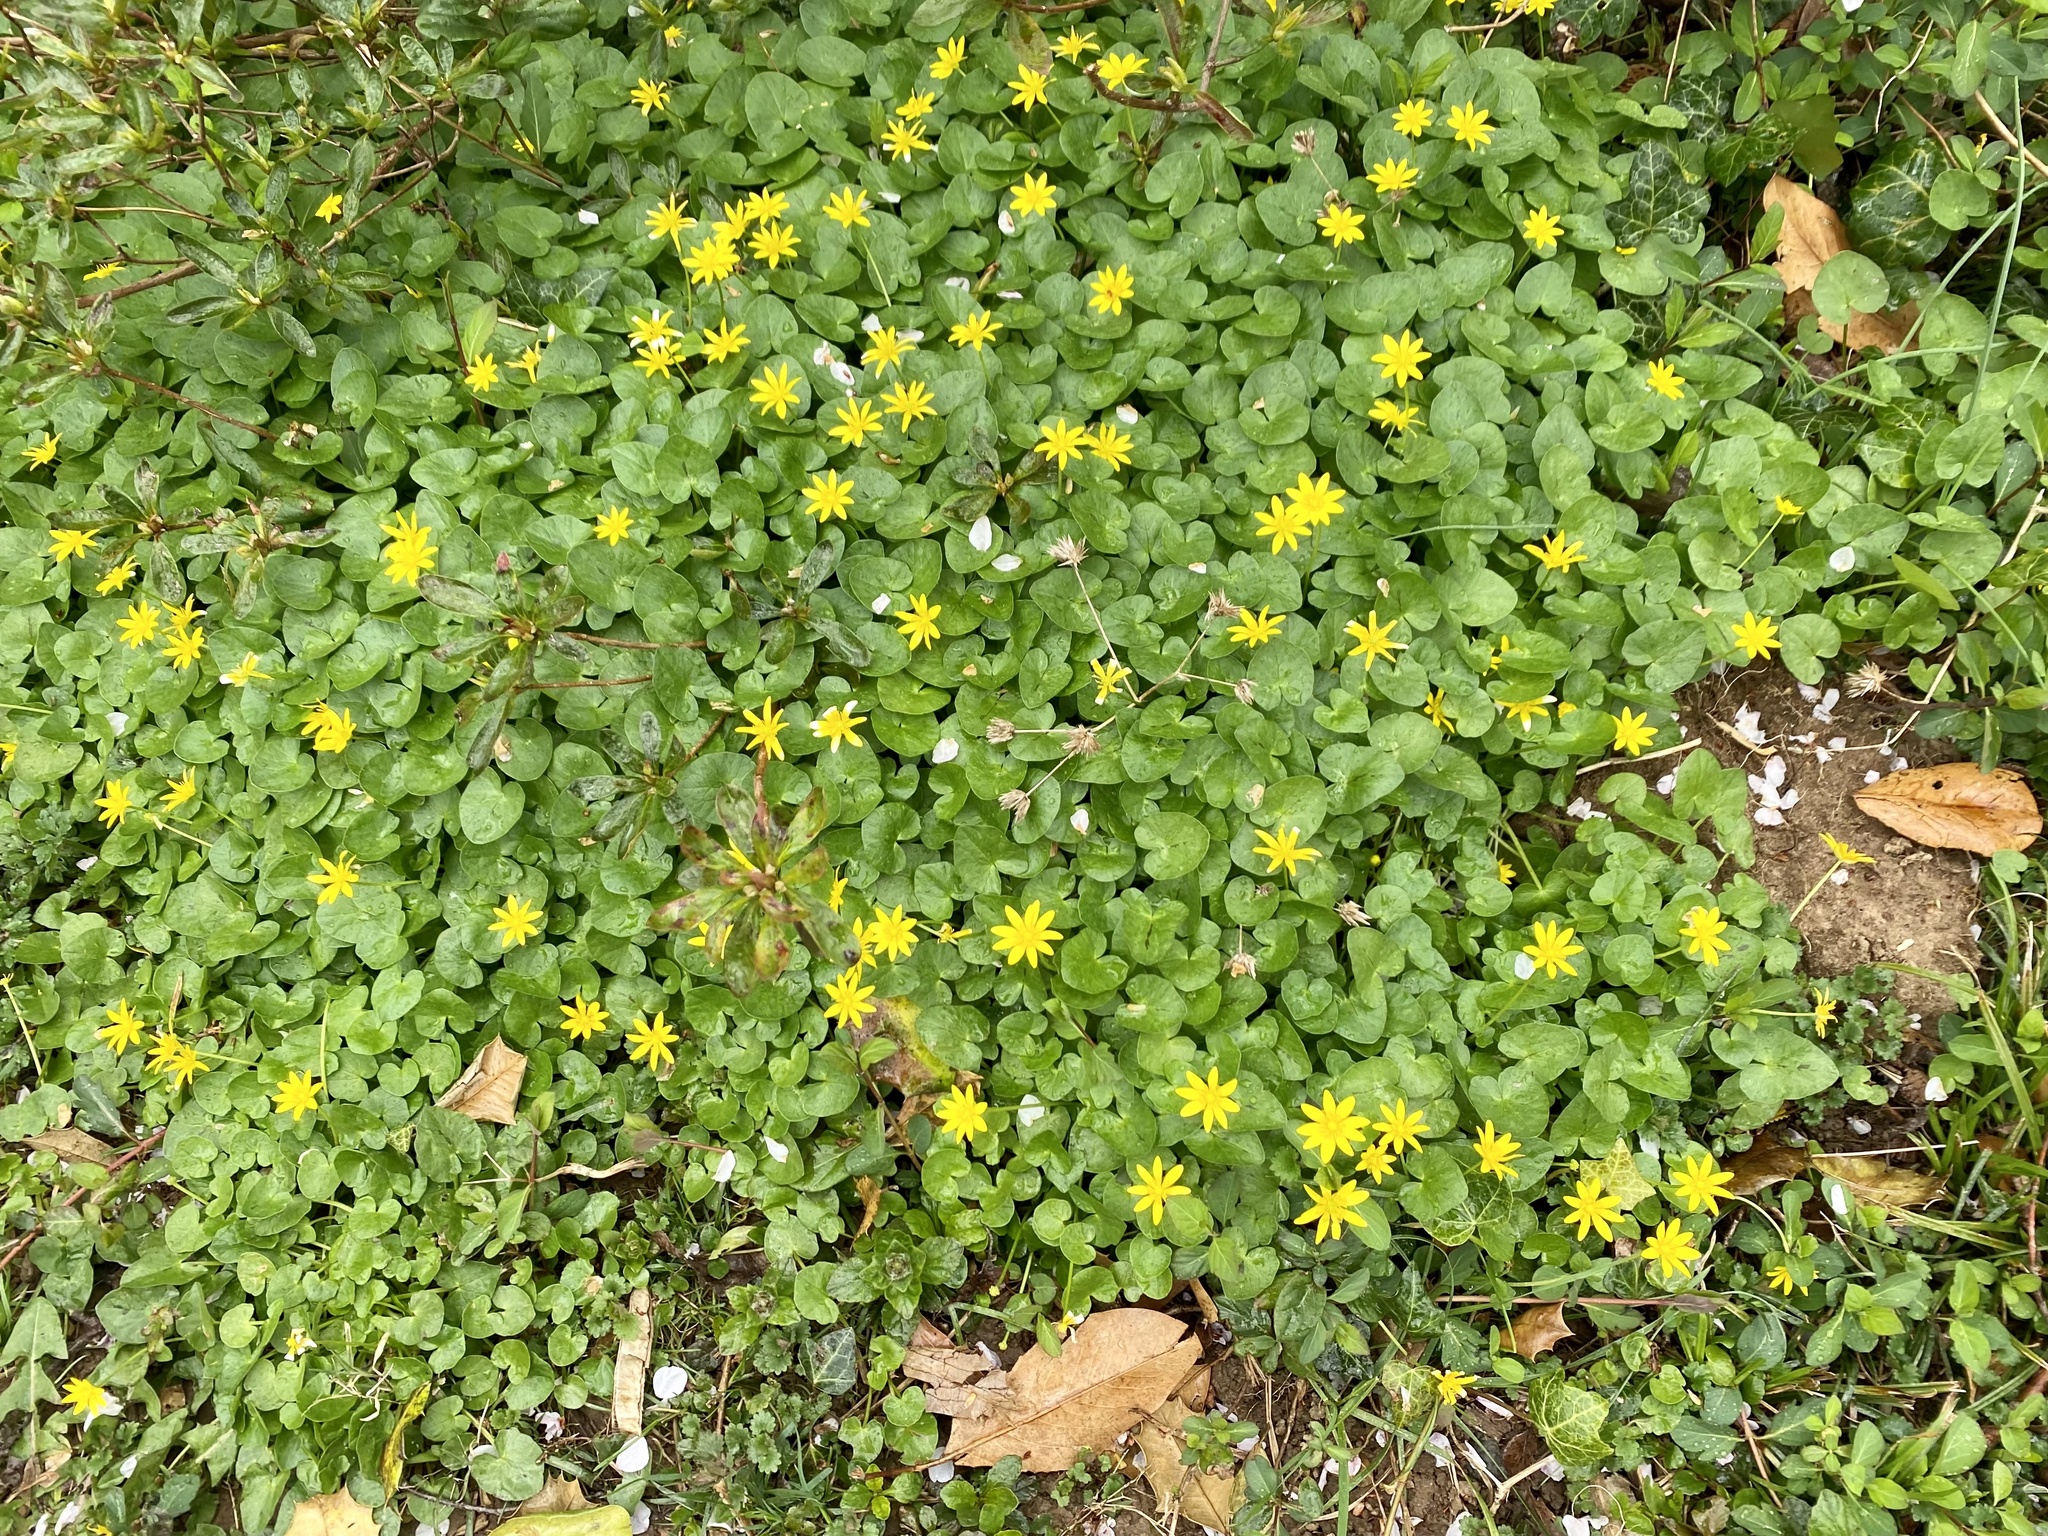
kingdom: Plantae
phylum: Tracheophyta
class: Magnoliopsida
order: Ranunculales
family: Ranunculaceae
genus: Ficaria
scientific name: Ficaria verna
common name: Lesser celandine
